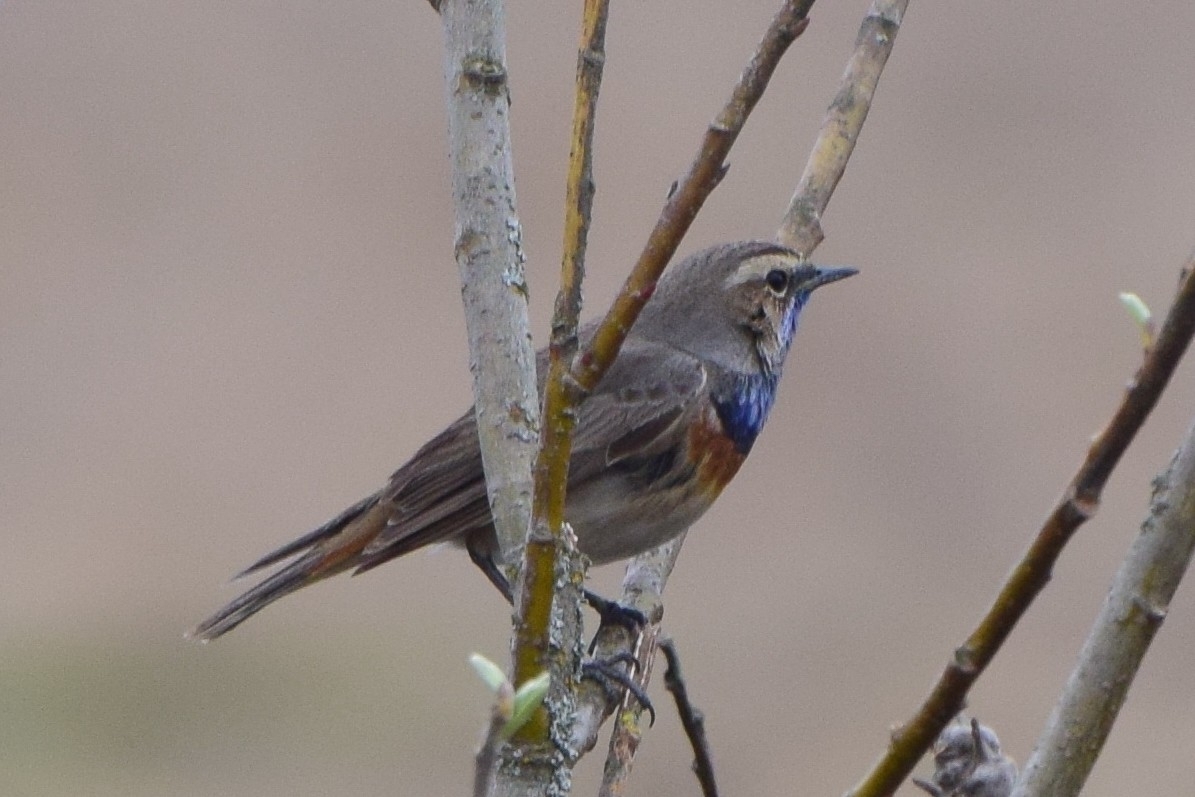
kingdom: Animalia
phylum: Chordata
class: Aves
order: Passeriformes
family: Muscicapidae
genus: Luscinia
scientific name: Luscinia svecica
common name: Bluethroat
